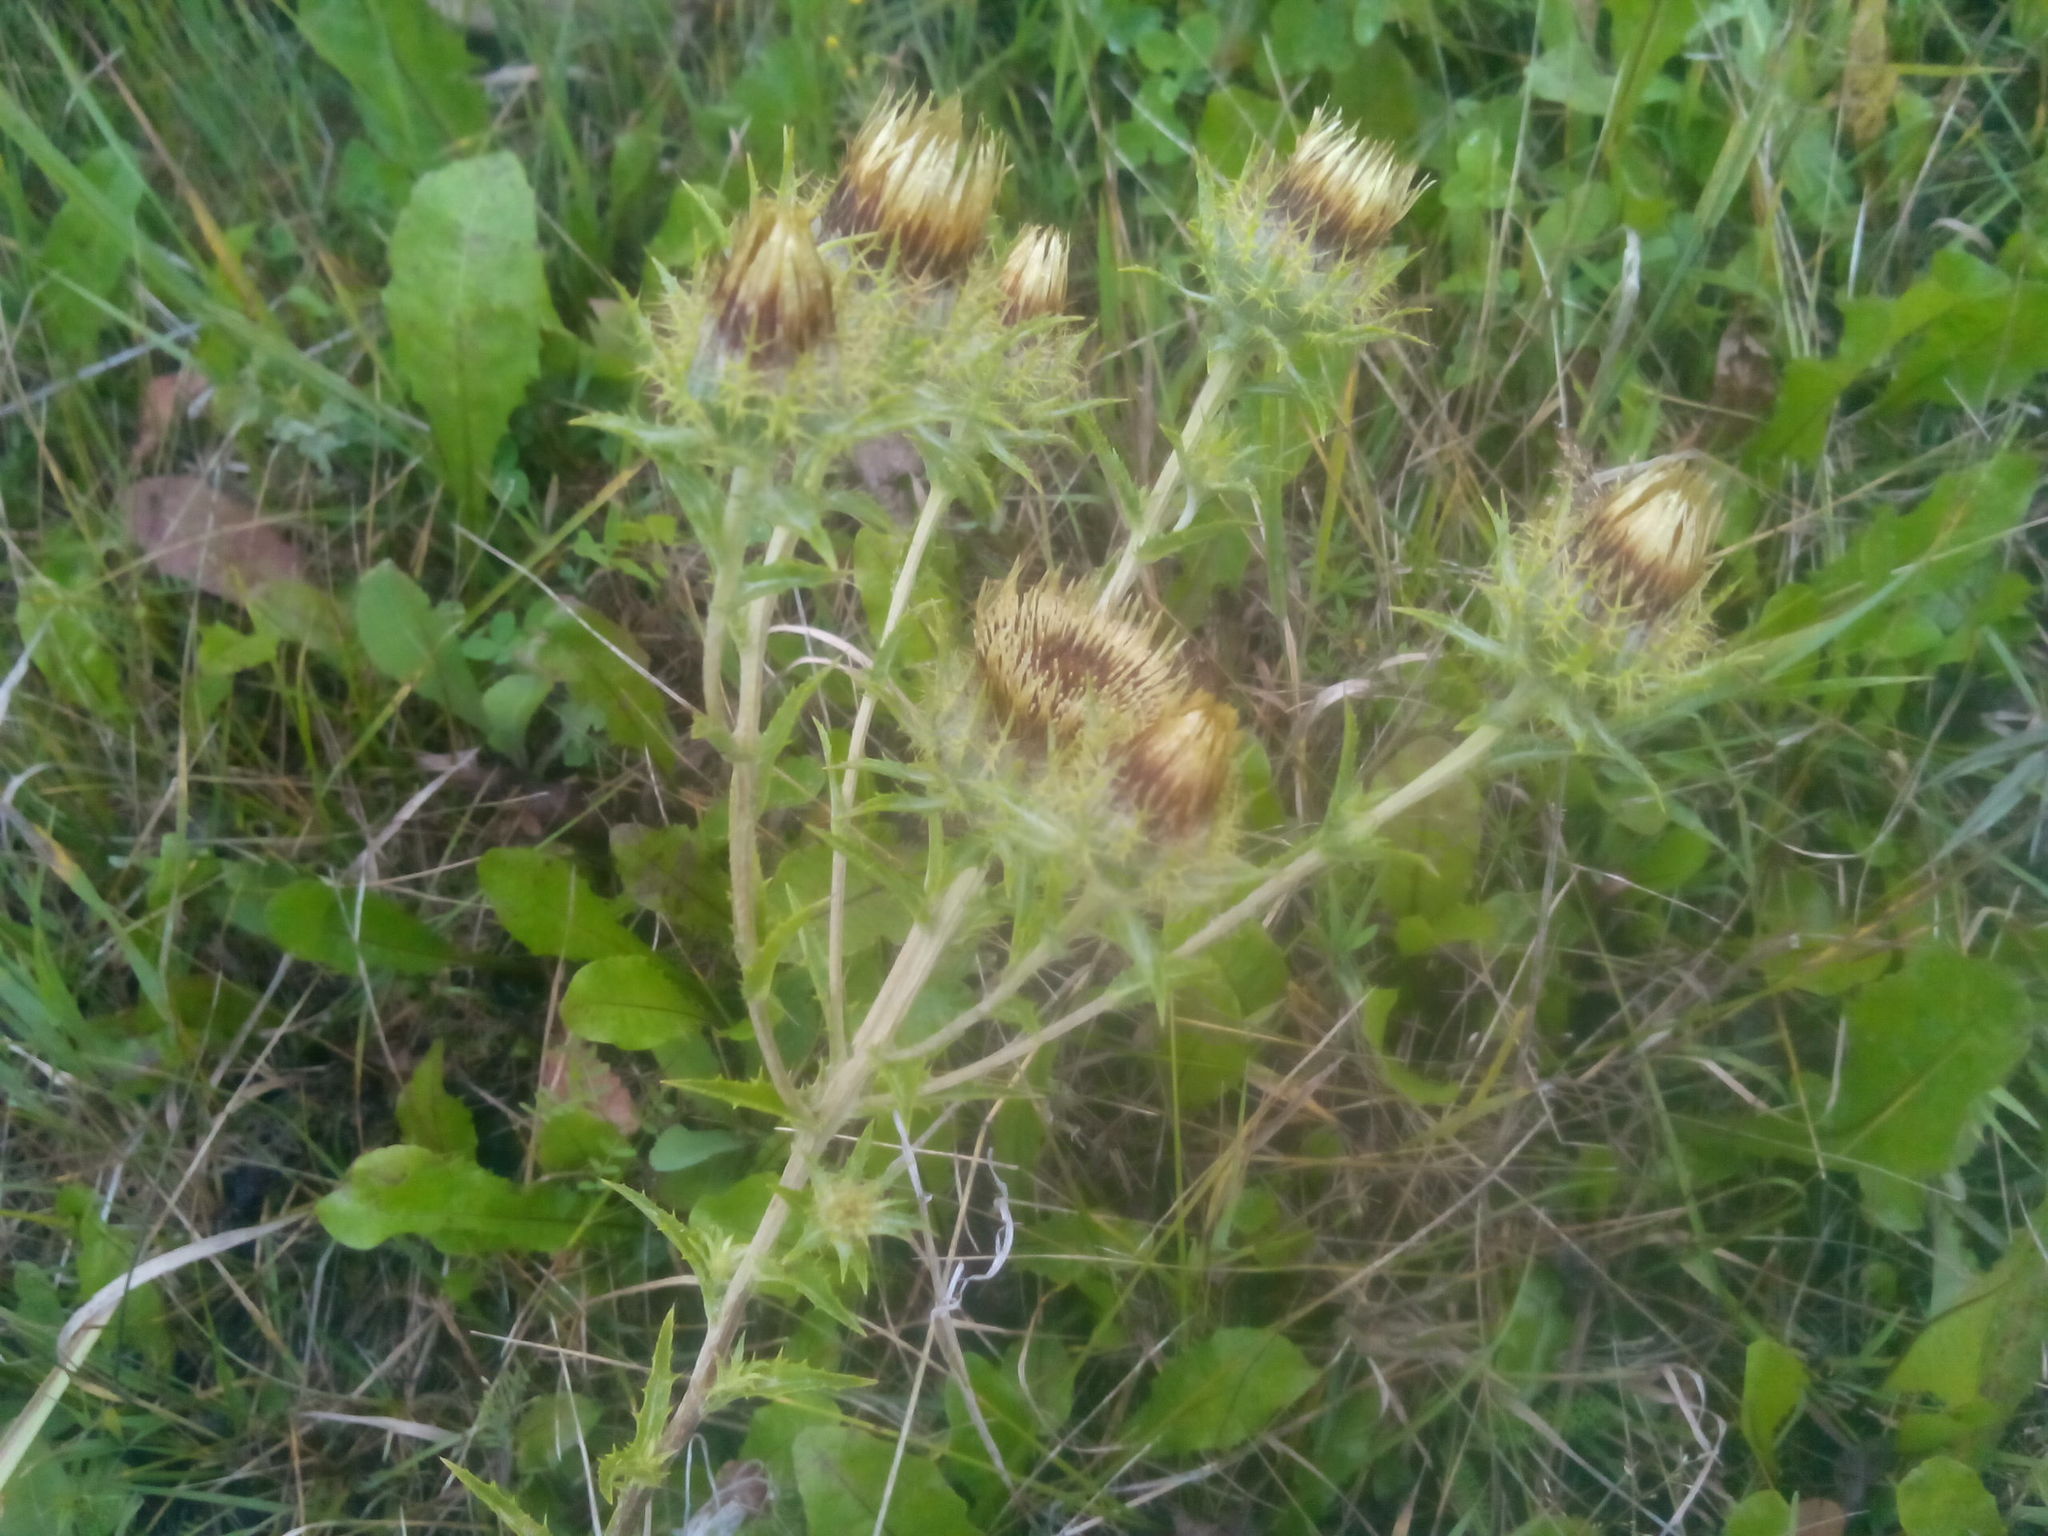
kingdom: Plantae
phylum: Tracheophyta
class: Magnoliopsida
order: Asterales
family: Asteraceae
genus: Carlina
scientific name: Carlina biebersteinii
